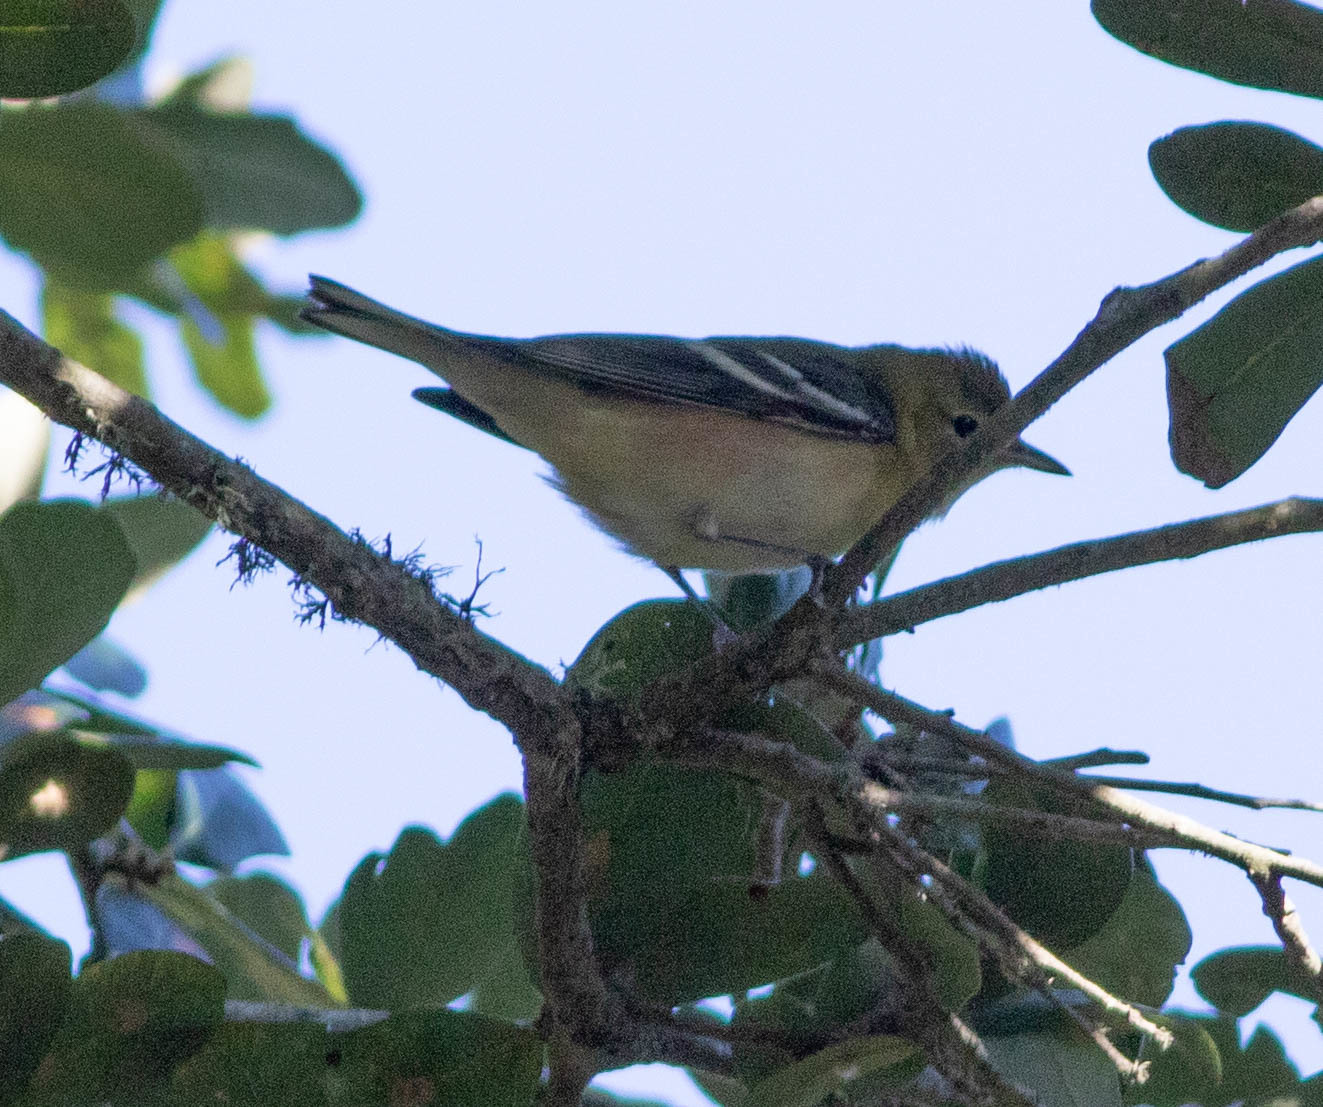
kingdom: Animalia
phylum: Chordata
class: Aves
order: Passeriformes
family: Parulidae
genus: Setophaga
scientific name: Setophaga castanea
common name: Bay-breasted warbler
